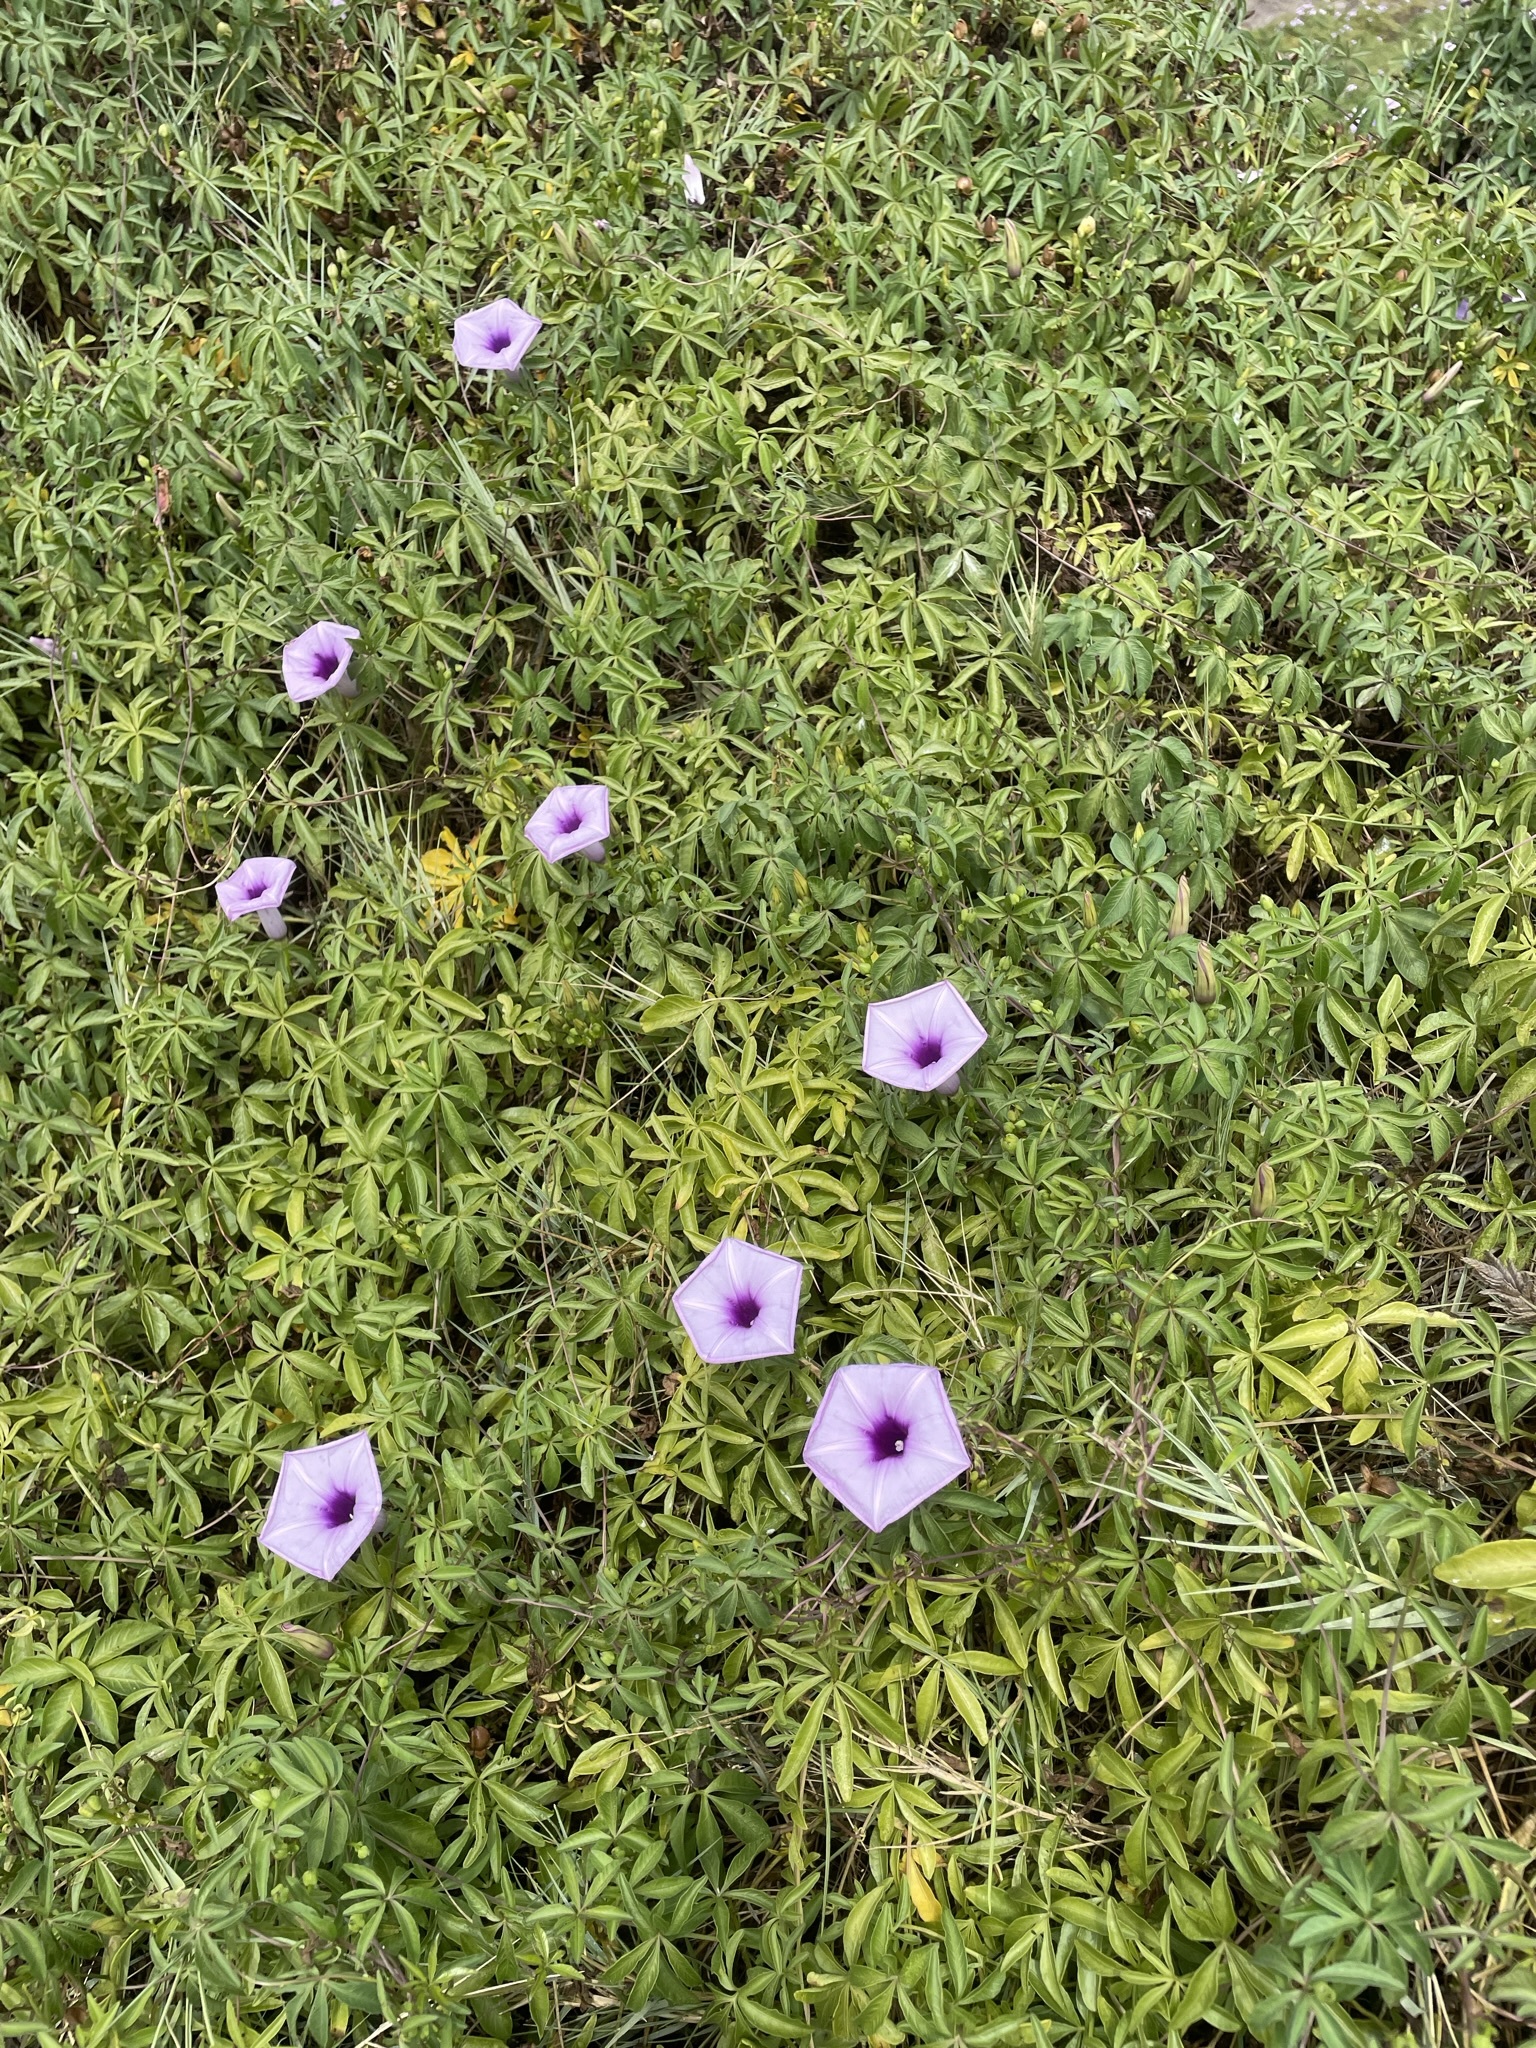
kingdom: Plantae
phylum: Tracheophyta
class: Magnoliopsida
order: Solanales
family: Convolvulaceae
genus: Ipomoea
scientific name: Ipomoea cairica
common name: Mile a minute vine
